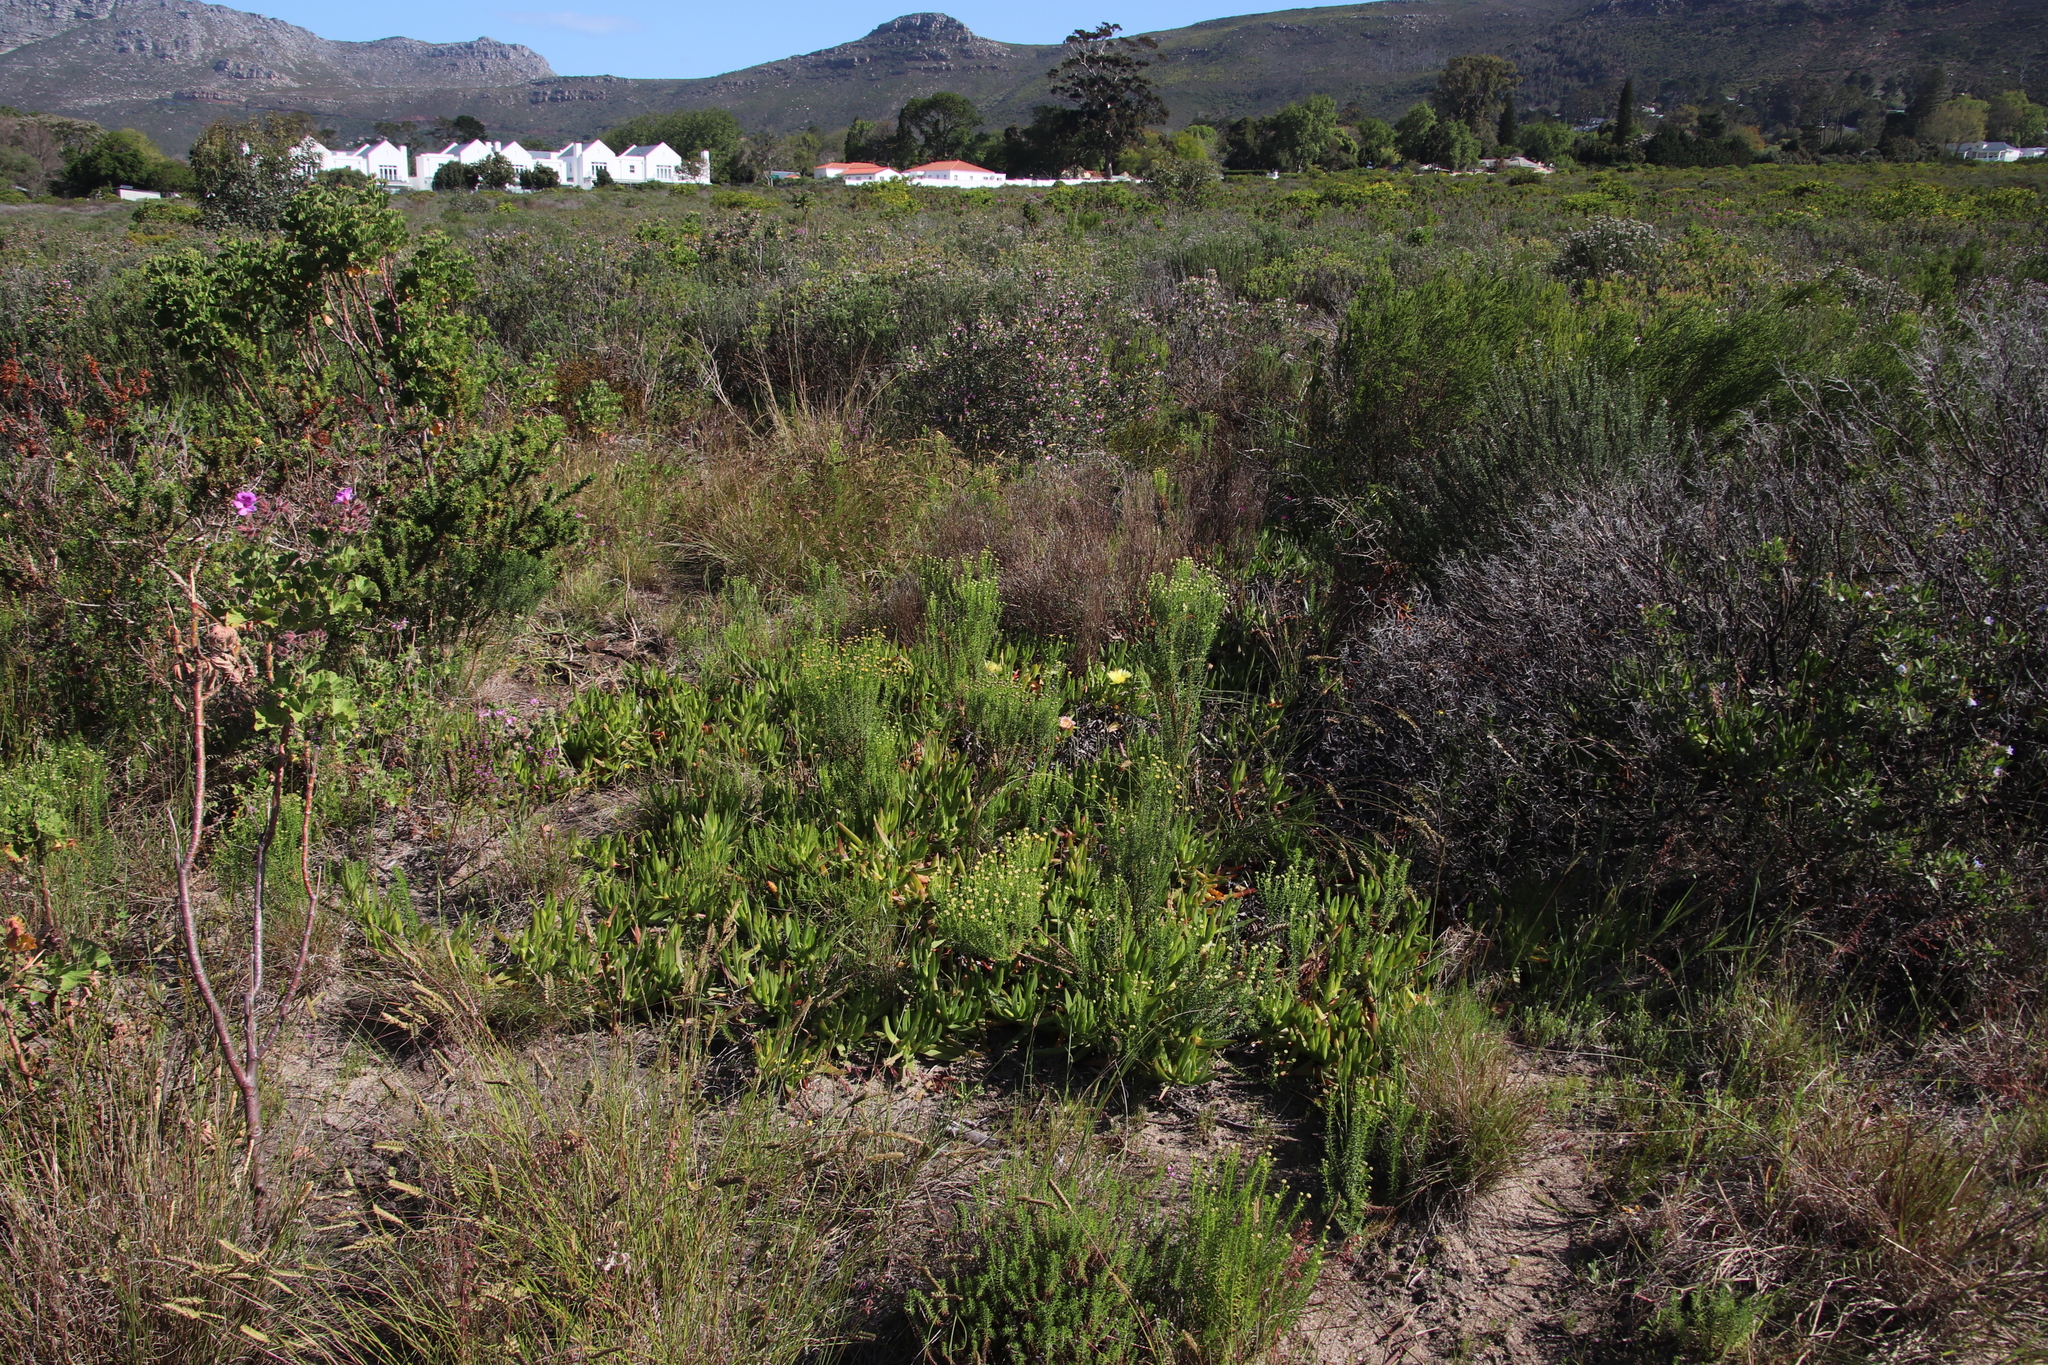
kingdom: Plantae
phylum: Tracheophyta
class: Magnoliopsida
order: Caryophyllales
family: Aizoaceae
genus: Carpobrotus
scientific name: Carpobrotus edulis
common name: Hottentot-fig
